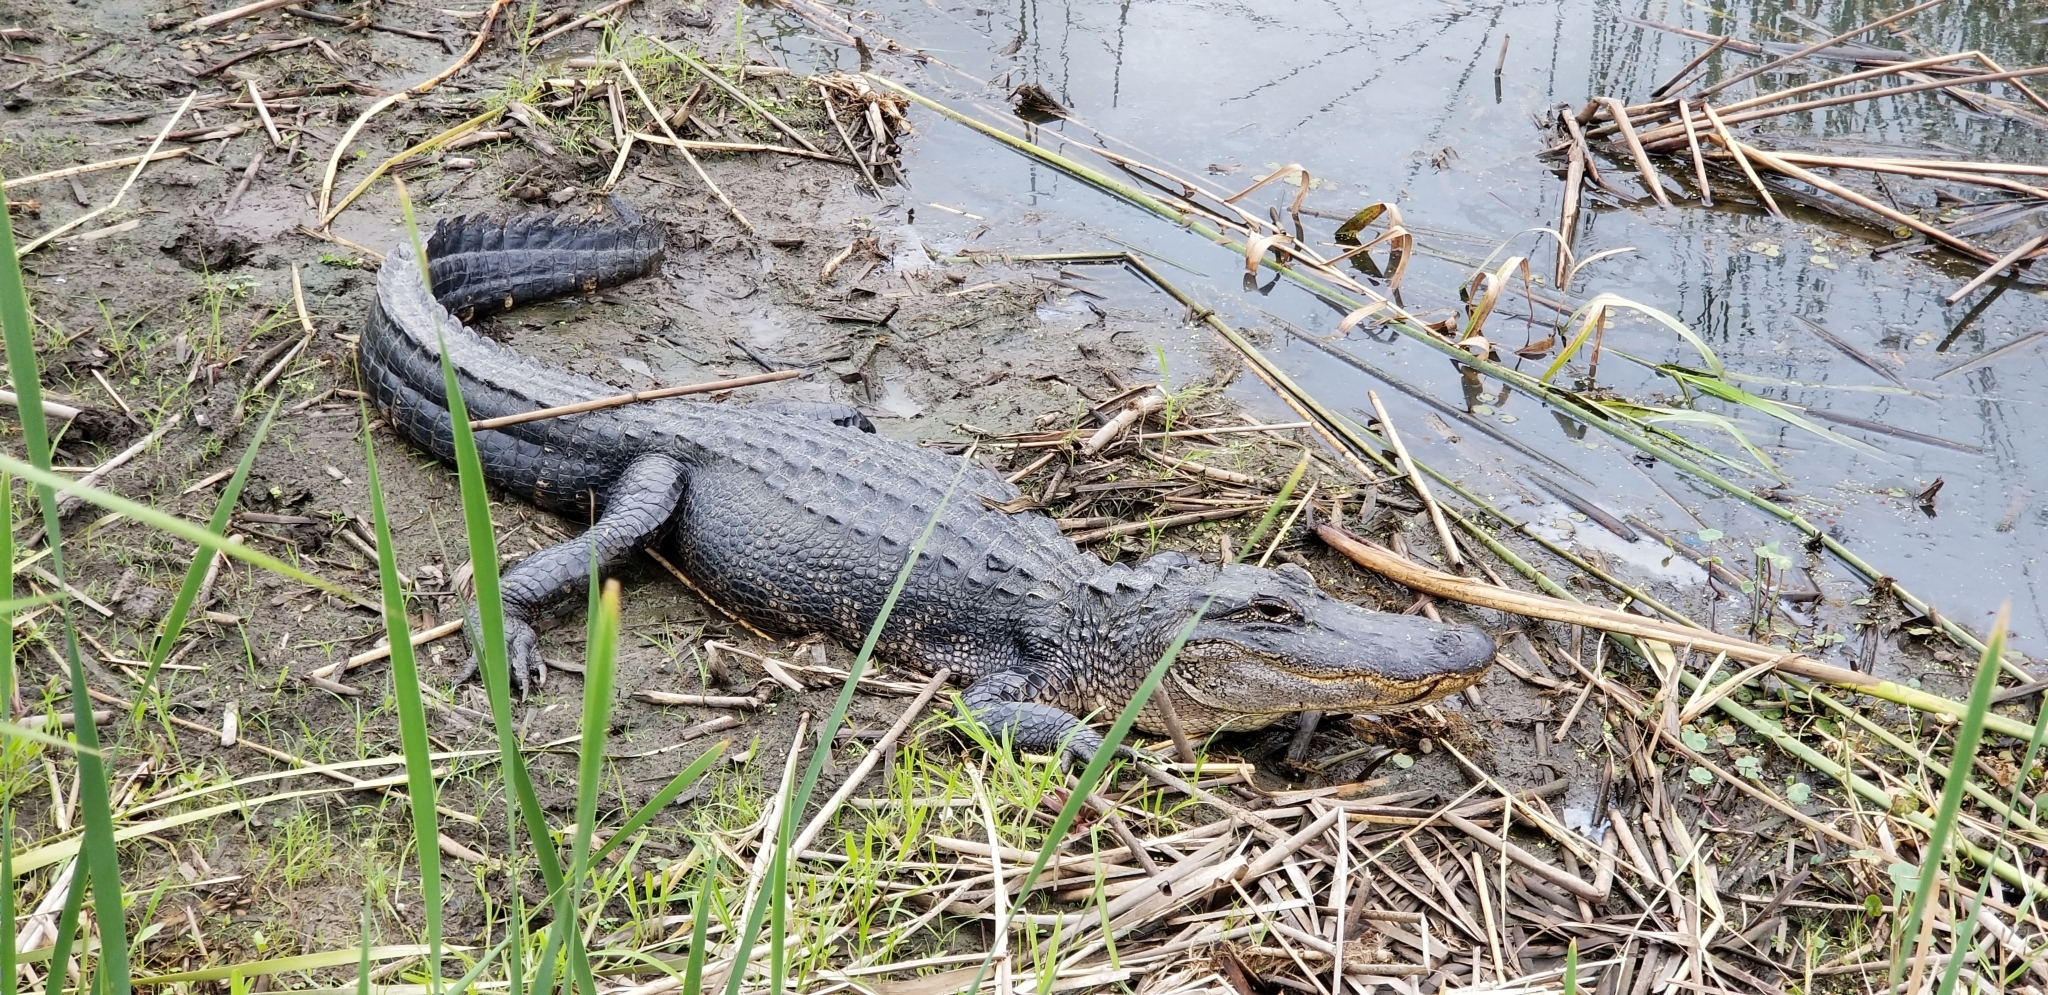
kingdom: Animalia
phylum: Chordata
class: Crocodylia
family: Alligatoridae
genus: Alligator
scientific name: Alligator mississippiensis
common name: American alligator
